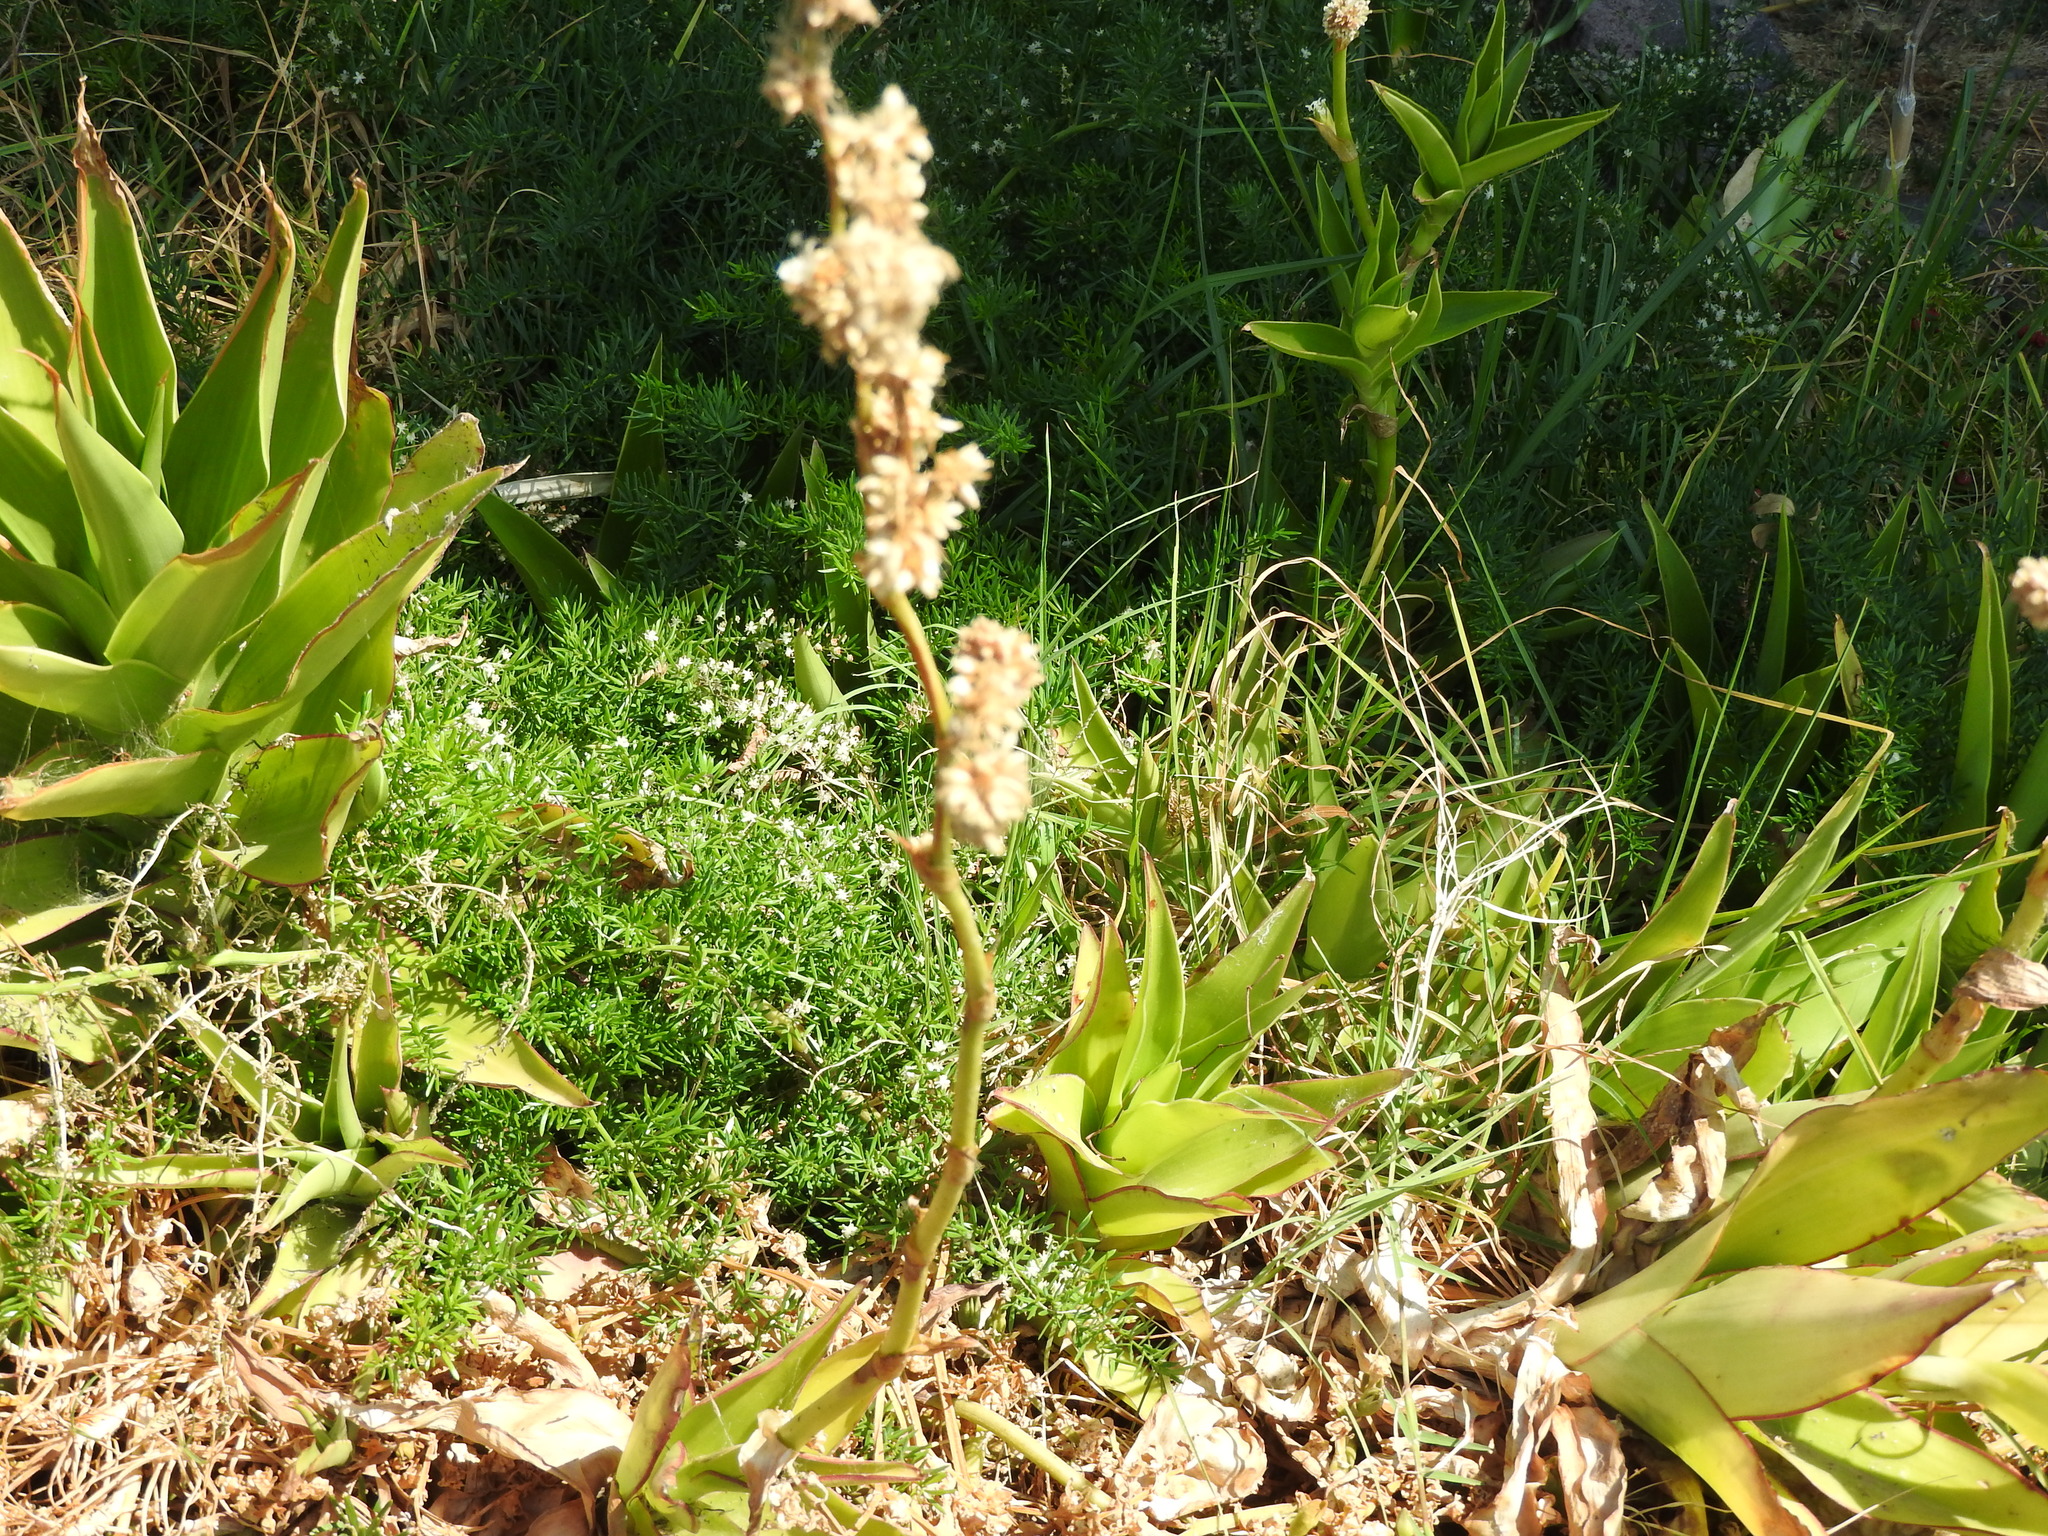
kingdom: Plantae
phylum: Tracheophyta
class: Liliopsida
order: Commelinales
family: Commelinaceae
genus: Callisia
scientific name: Callisia fragrans
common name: Basketplant
